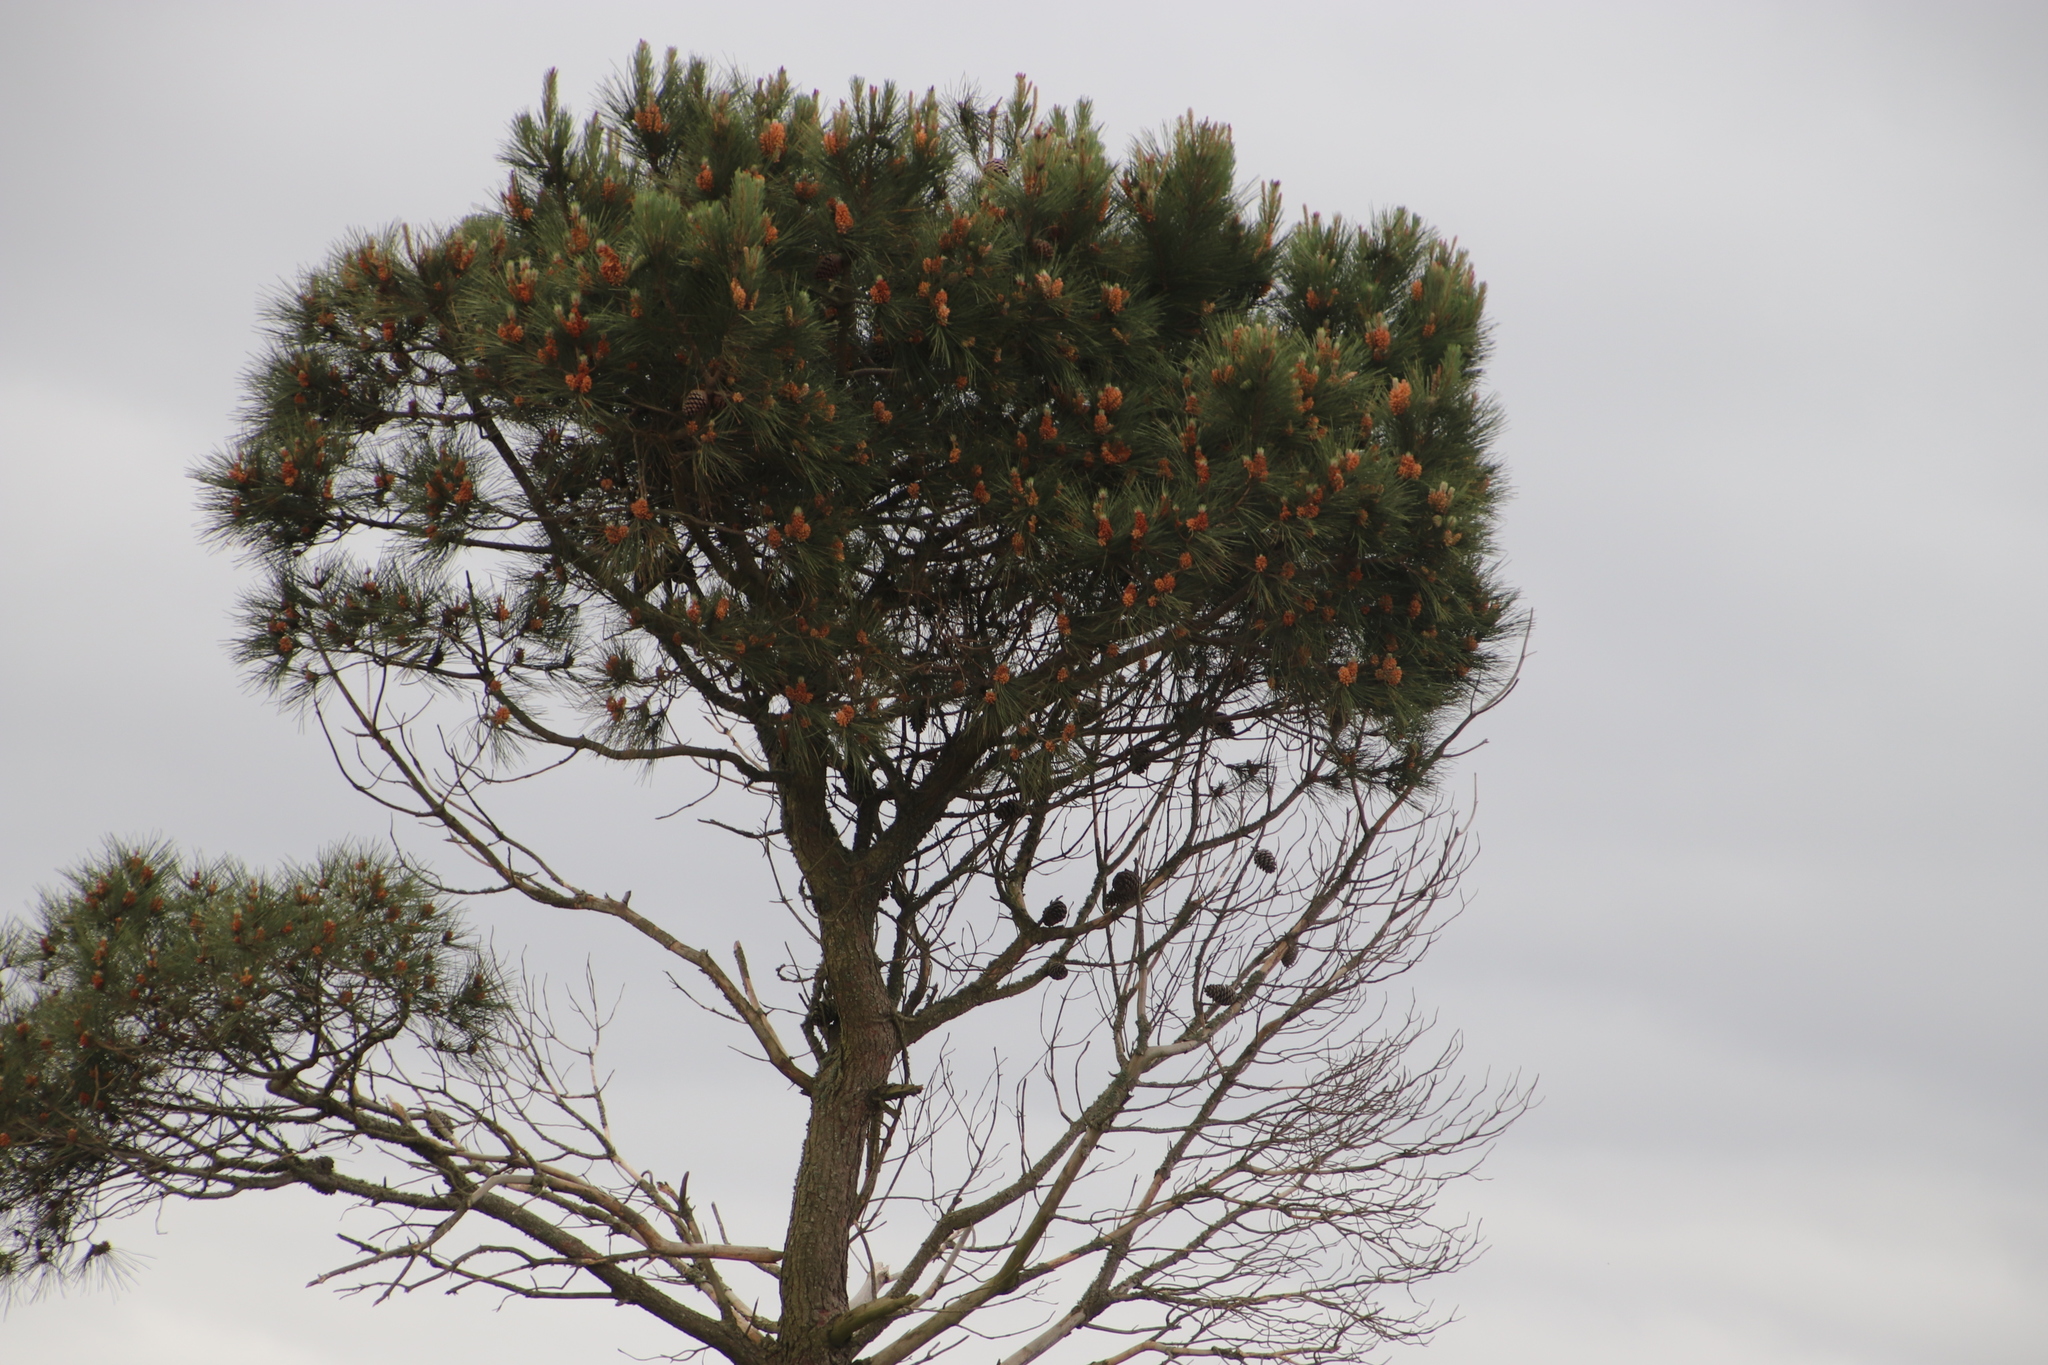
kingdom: Plantae
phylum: Tracheophyta
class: Pinopsida
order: Pinales
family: Pinaceae
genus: Pinus
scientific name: Pinus pinaster
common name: Maritime pine
